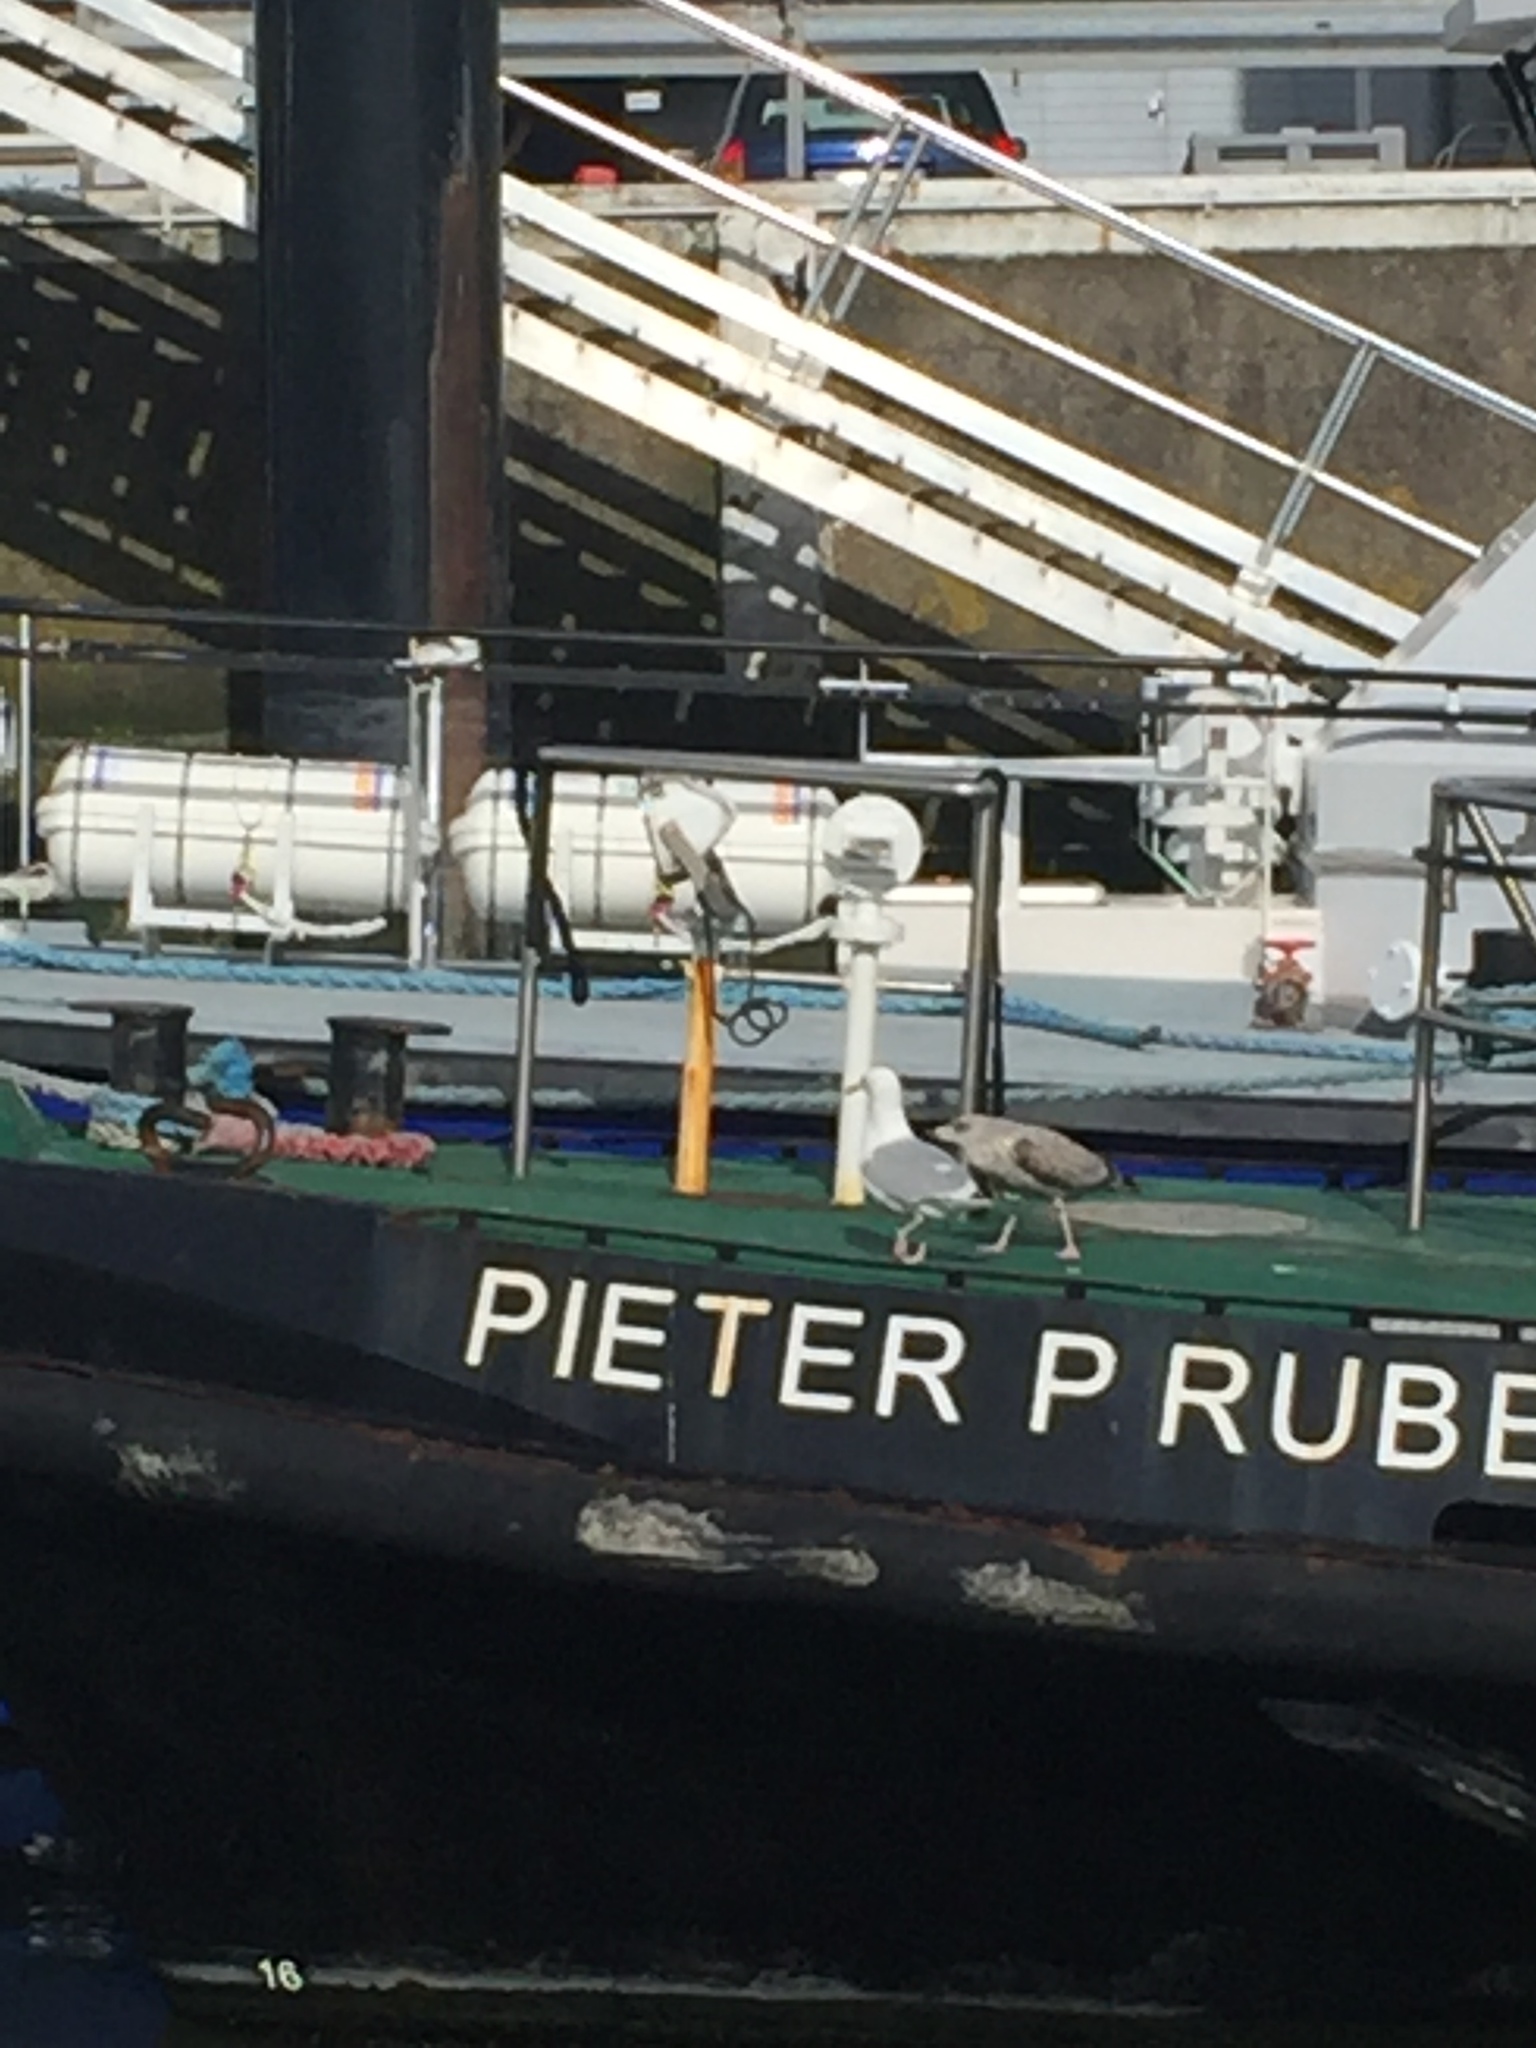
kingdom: Animalia
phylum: Chordata
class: Aves
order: Charadriiformes
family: Laridae
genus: Larus
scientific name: Larus argentatus
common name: Herring gull
